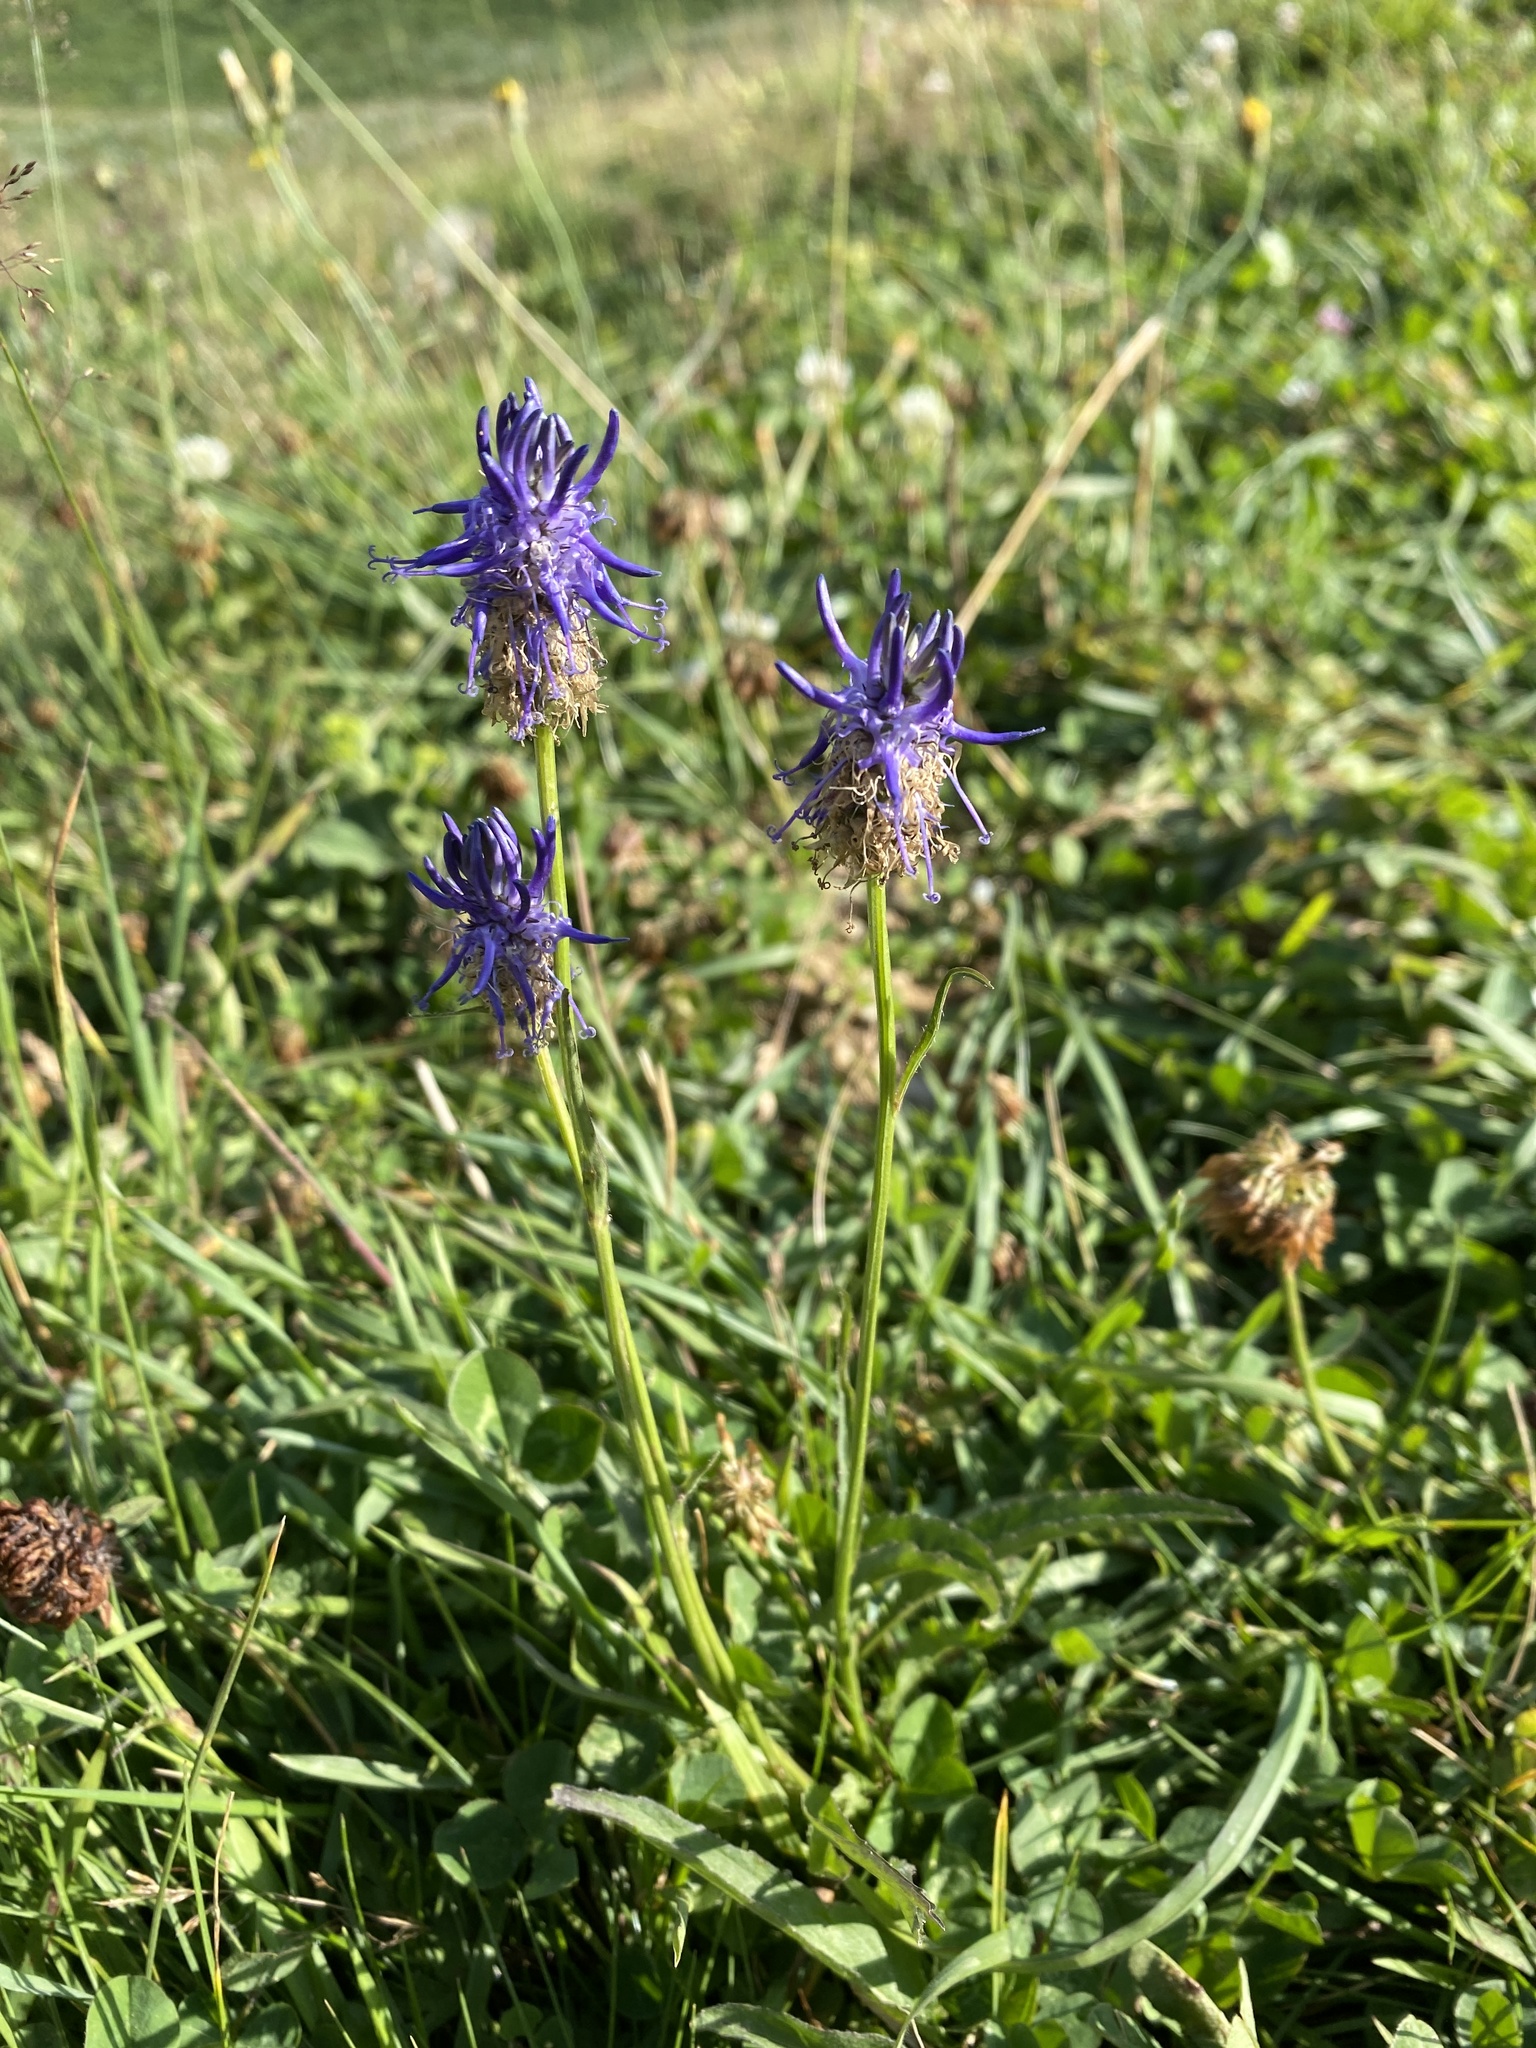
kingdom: Plantae
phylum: Tracheophyta
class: Magnoliopsida
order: Asterales
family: Campanulaceae
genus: Phyteuma
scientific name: Phyteuma betonicifolium
